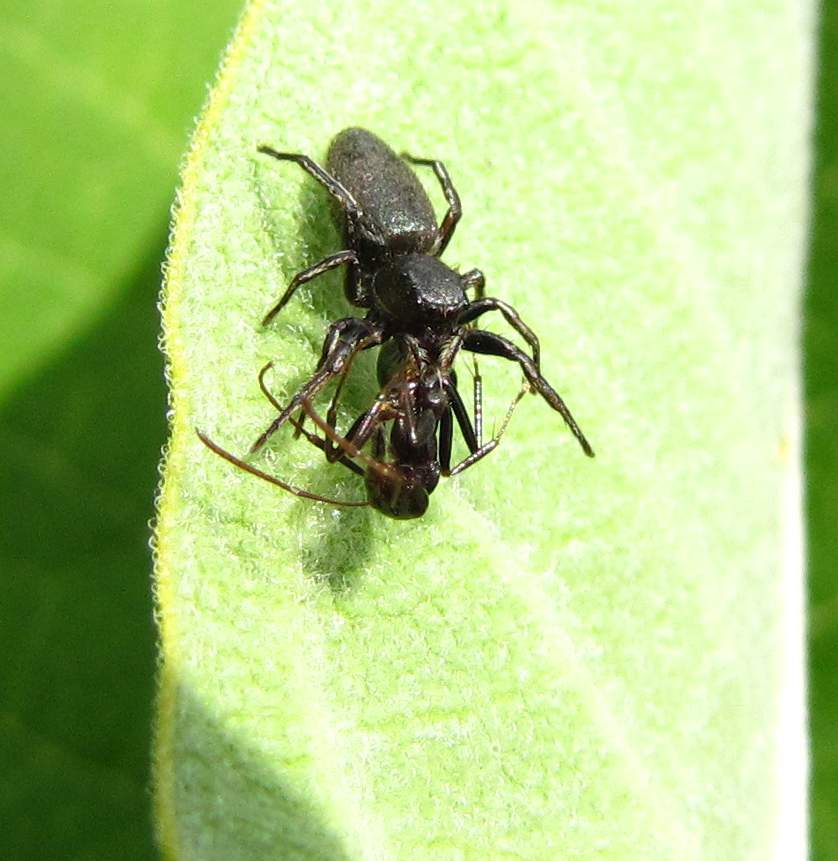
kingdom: Animalia
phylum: Arthropoda
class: Arachnida
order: Araneae
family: Salticidae
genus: Tutelina
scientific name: Tutelina similis
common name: Thick-spined jumping spider
